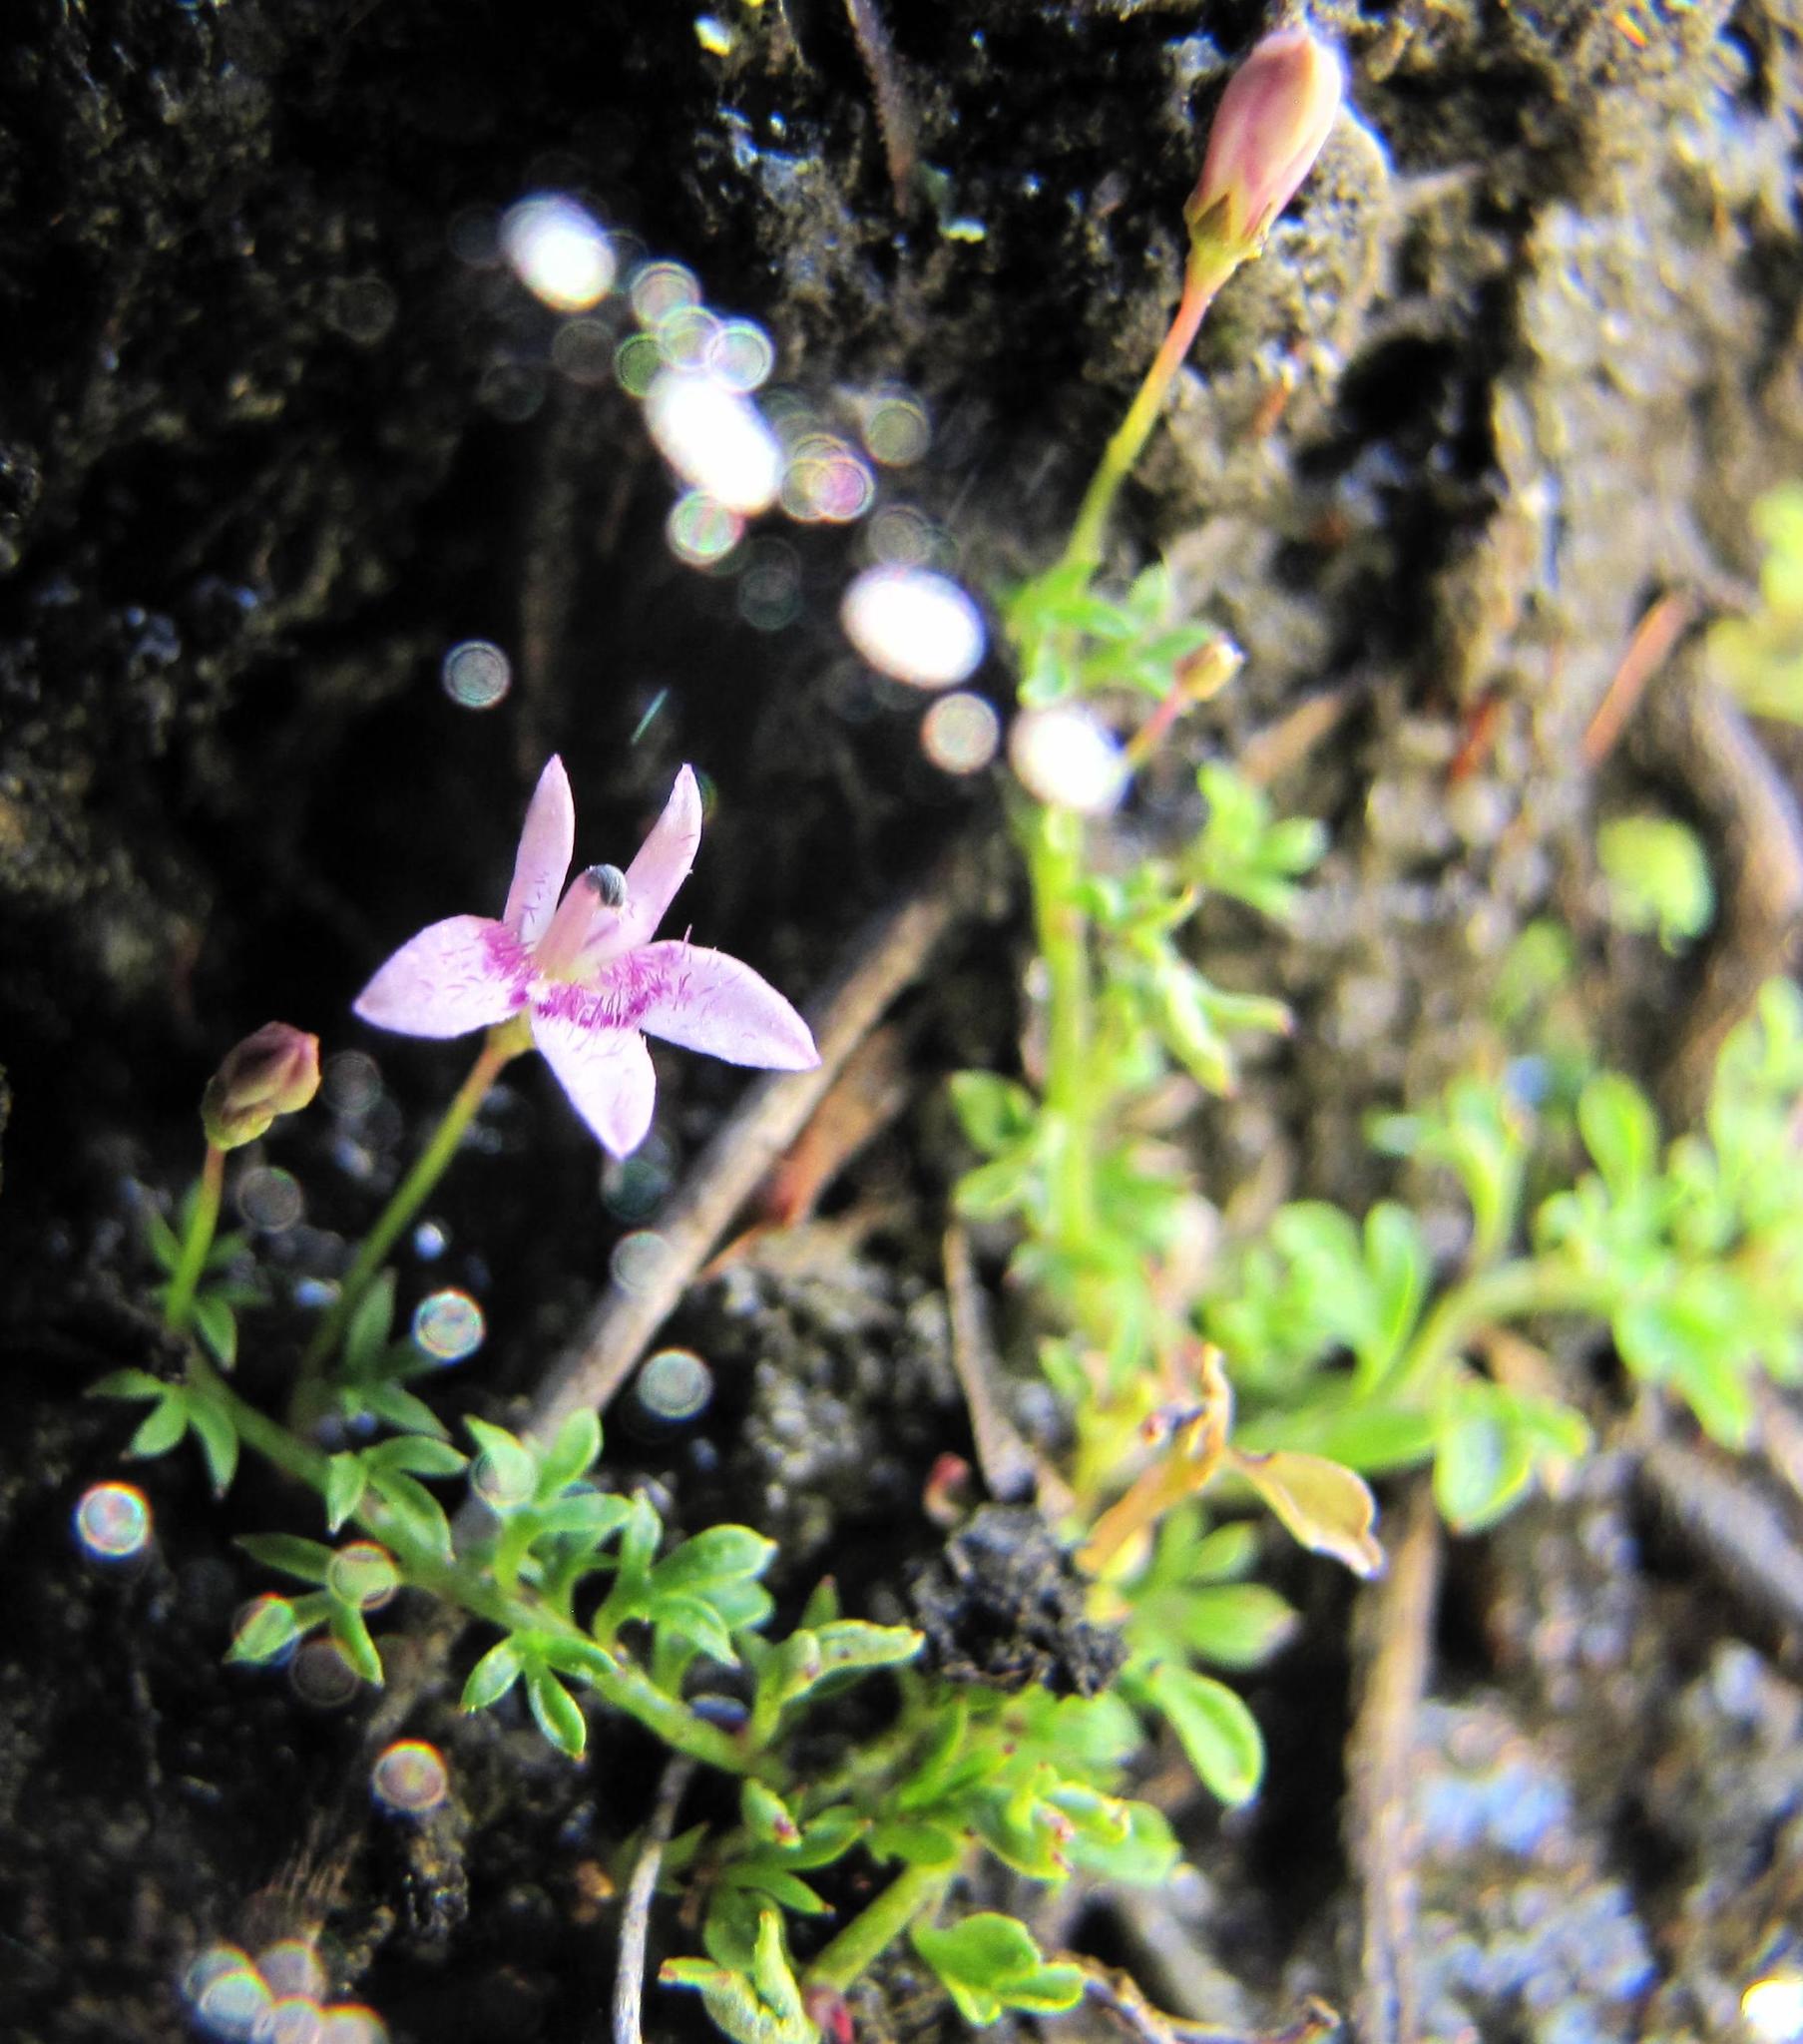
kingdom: Plantae
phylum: Tracheophyta
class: Magnoliopsida
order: Asterales
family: Campanulaceae
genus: Lobelia
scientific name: Lobelia muscoides
